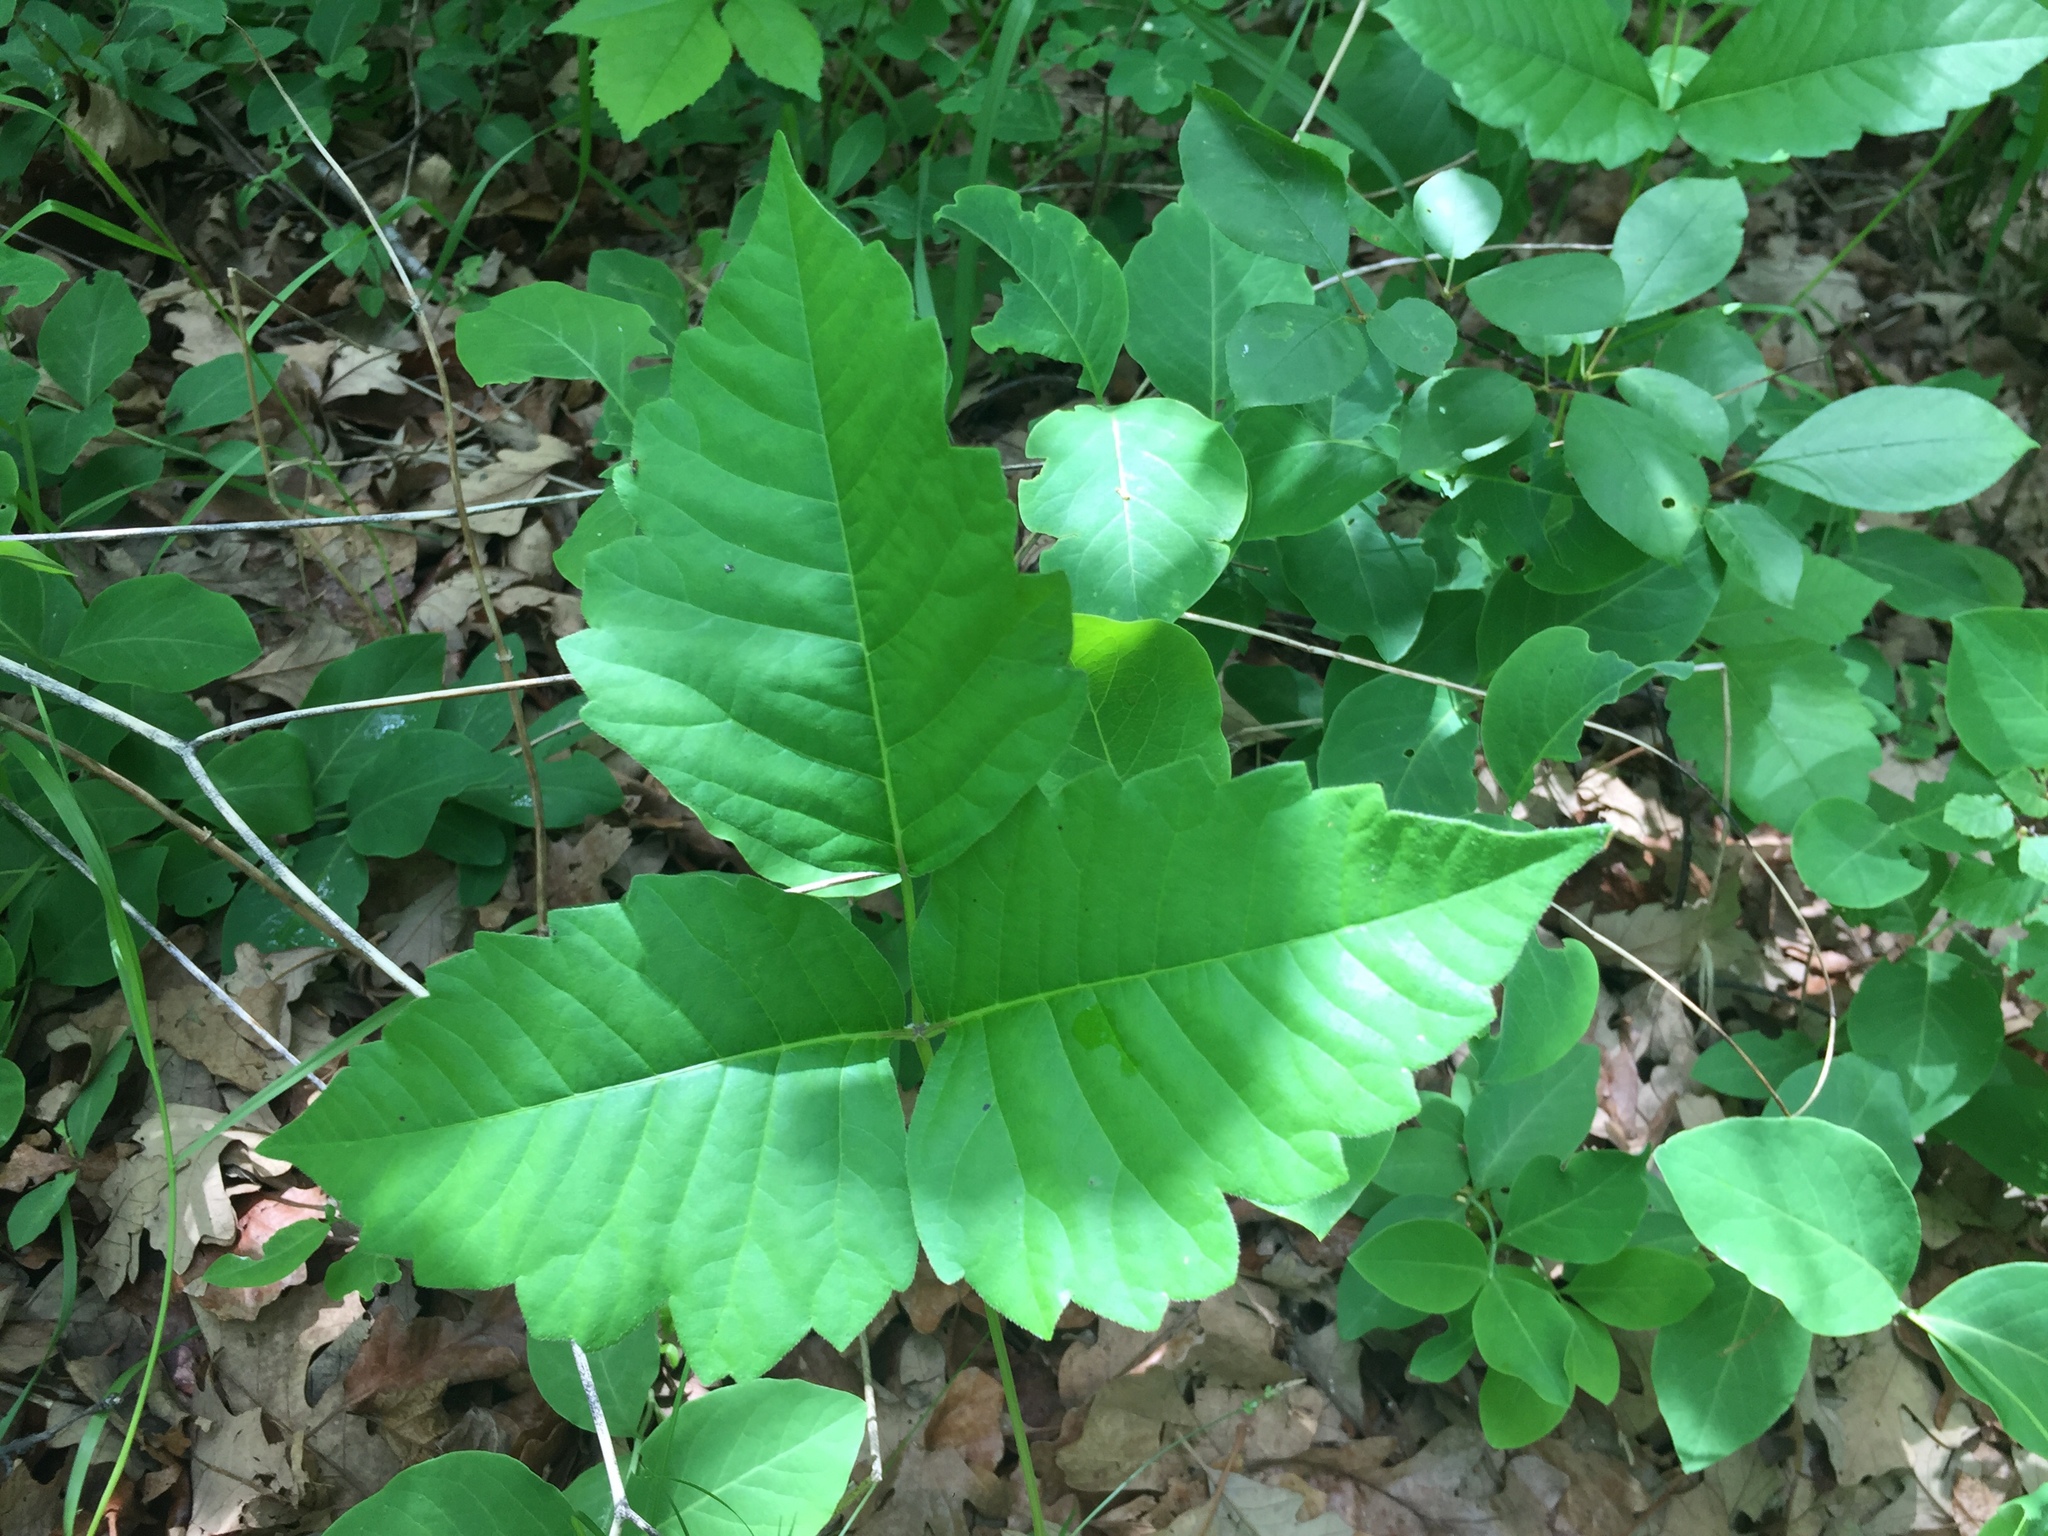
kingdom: Plantae
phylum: Tracheophyta
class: Magnoliopsida
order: Sapindales
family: Anacardiaceae
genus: Toxicodendron
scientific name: Toxicodendron rydbergii
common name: Rydberg's poison-ivy
